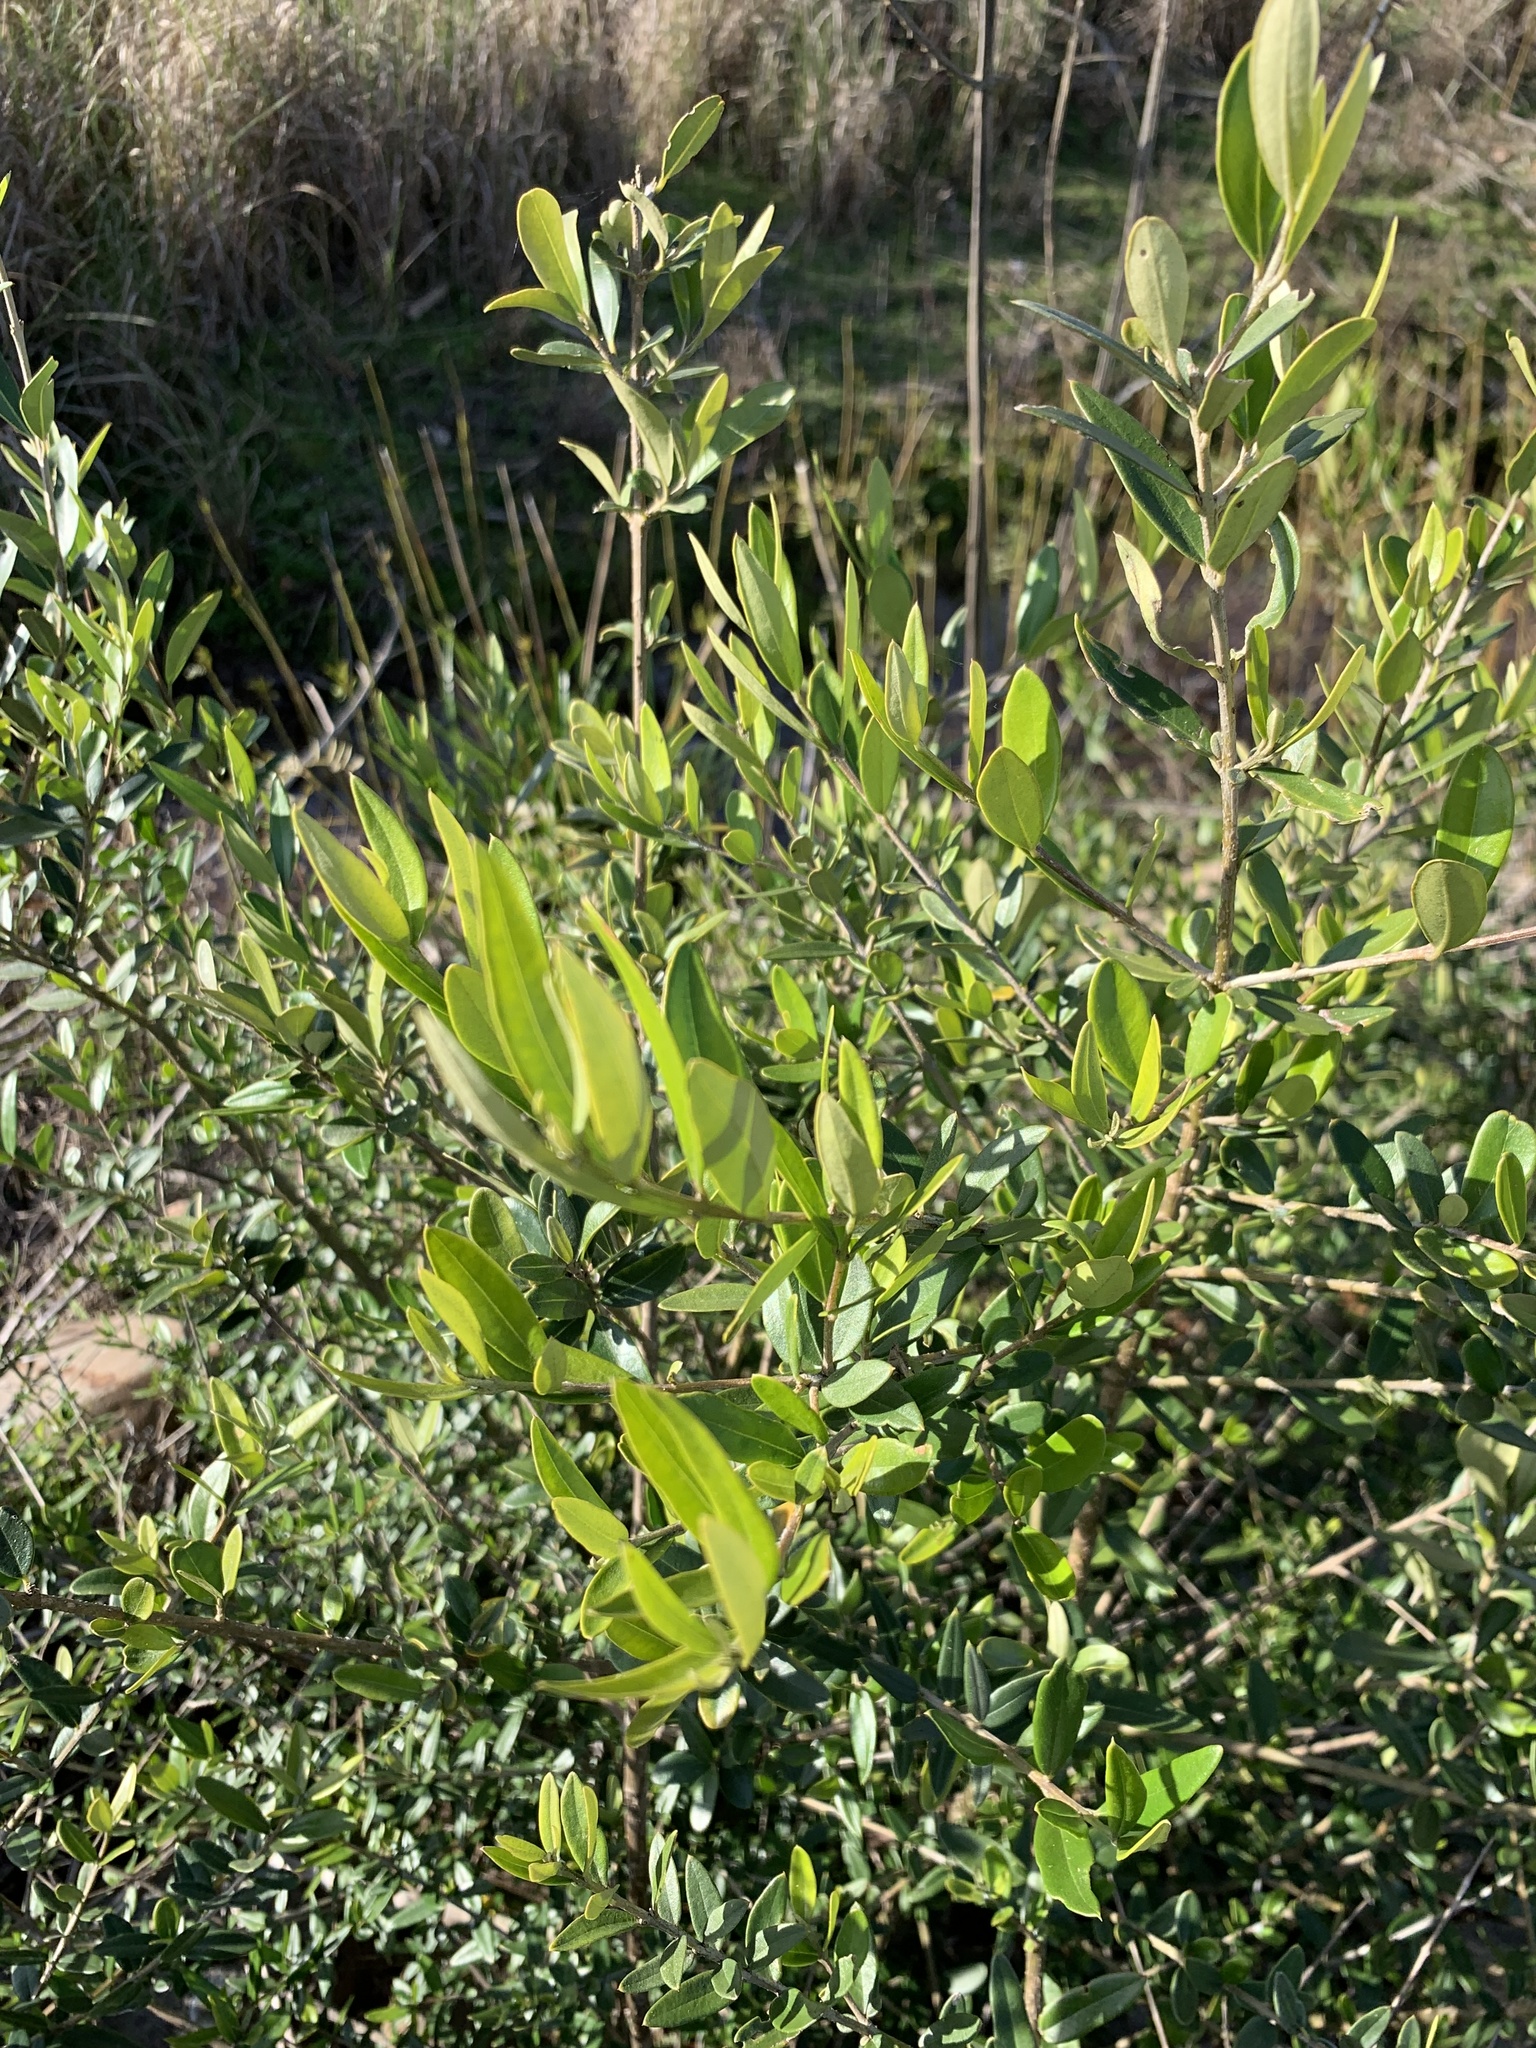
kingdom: Plantae
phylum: Tracheophyta
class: Magnoliopsida
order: Lamiales
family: Oleaceae
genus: Olea
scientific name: Olea europaea
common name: Olive
